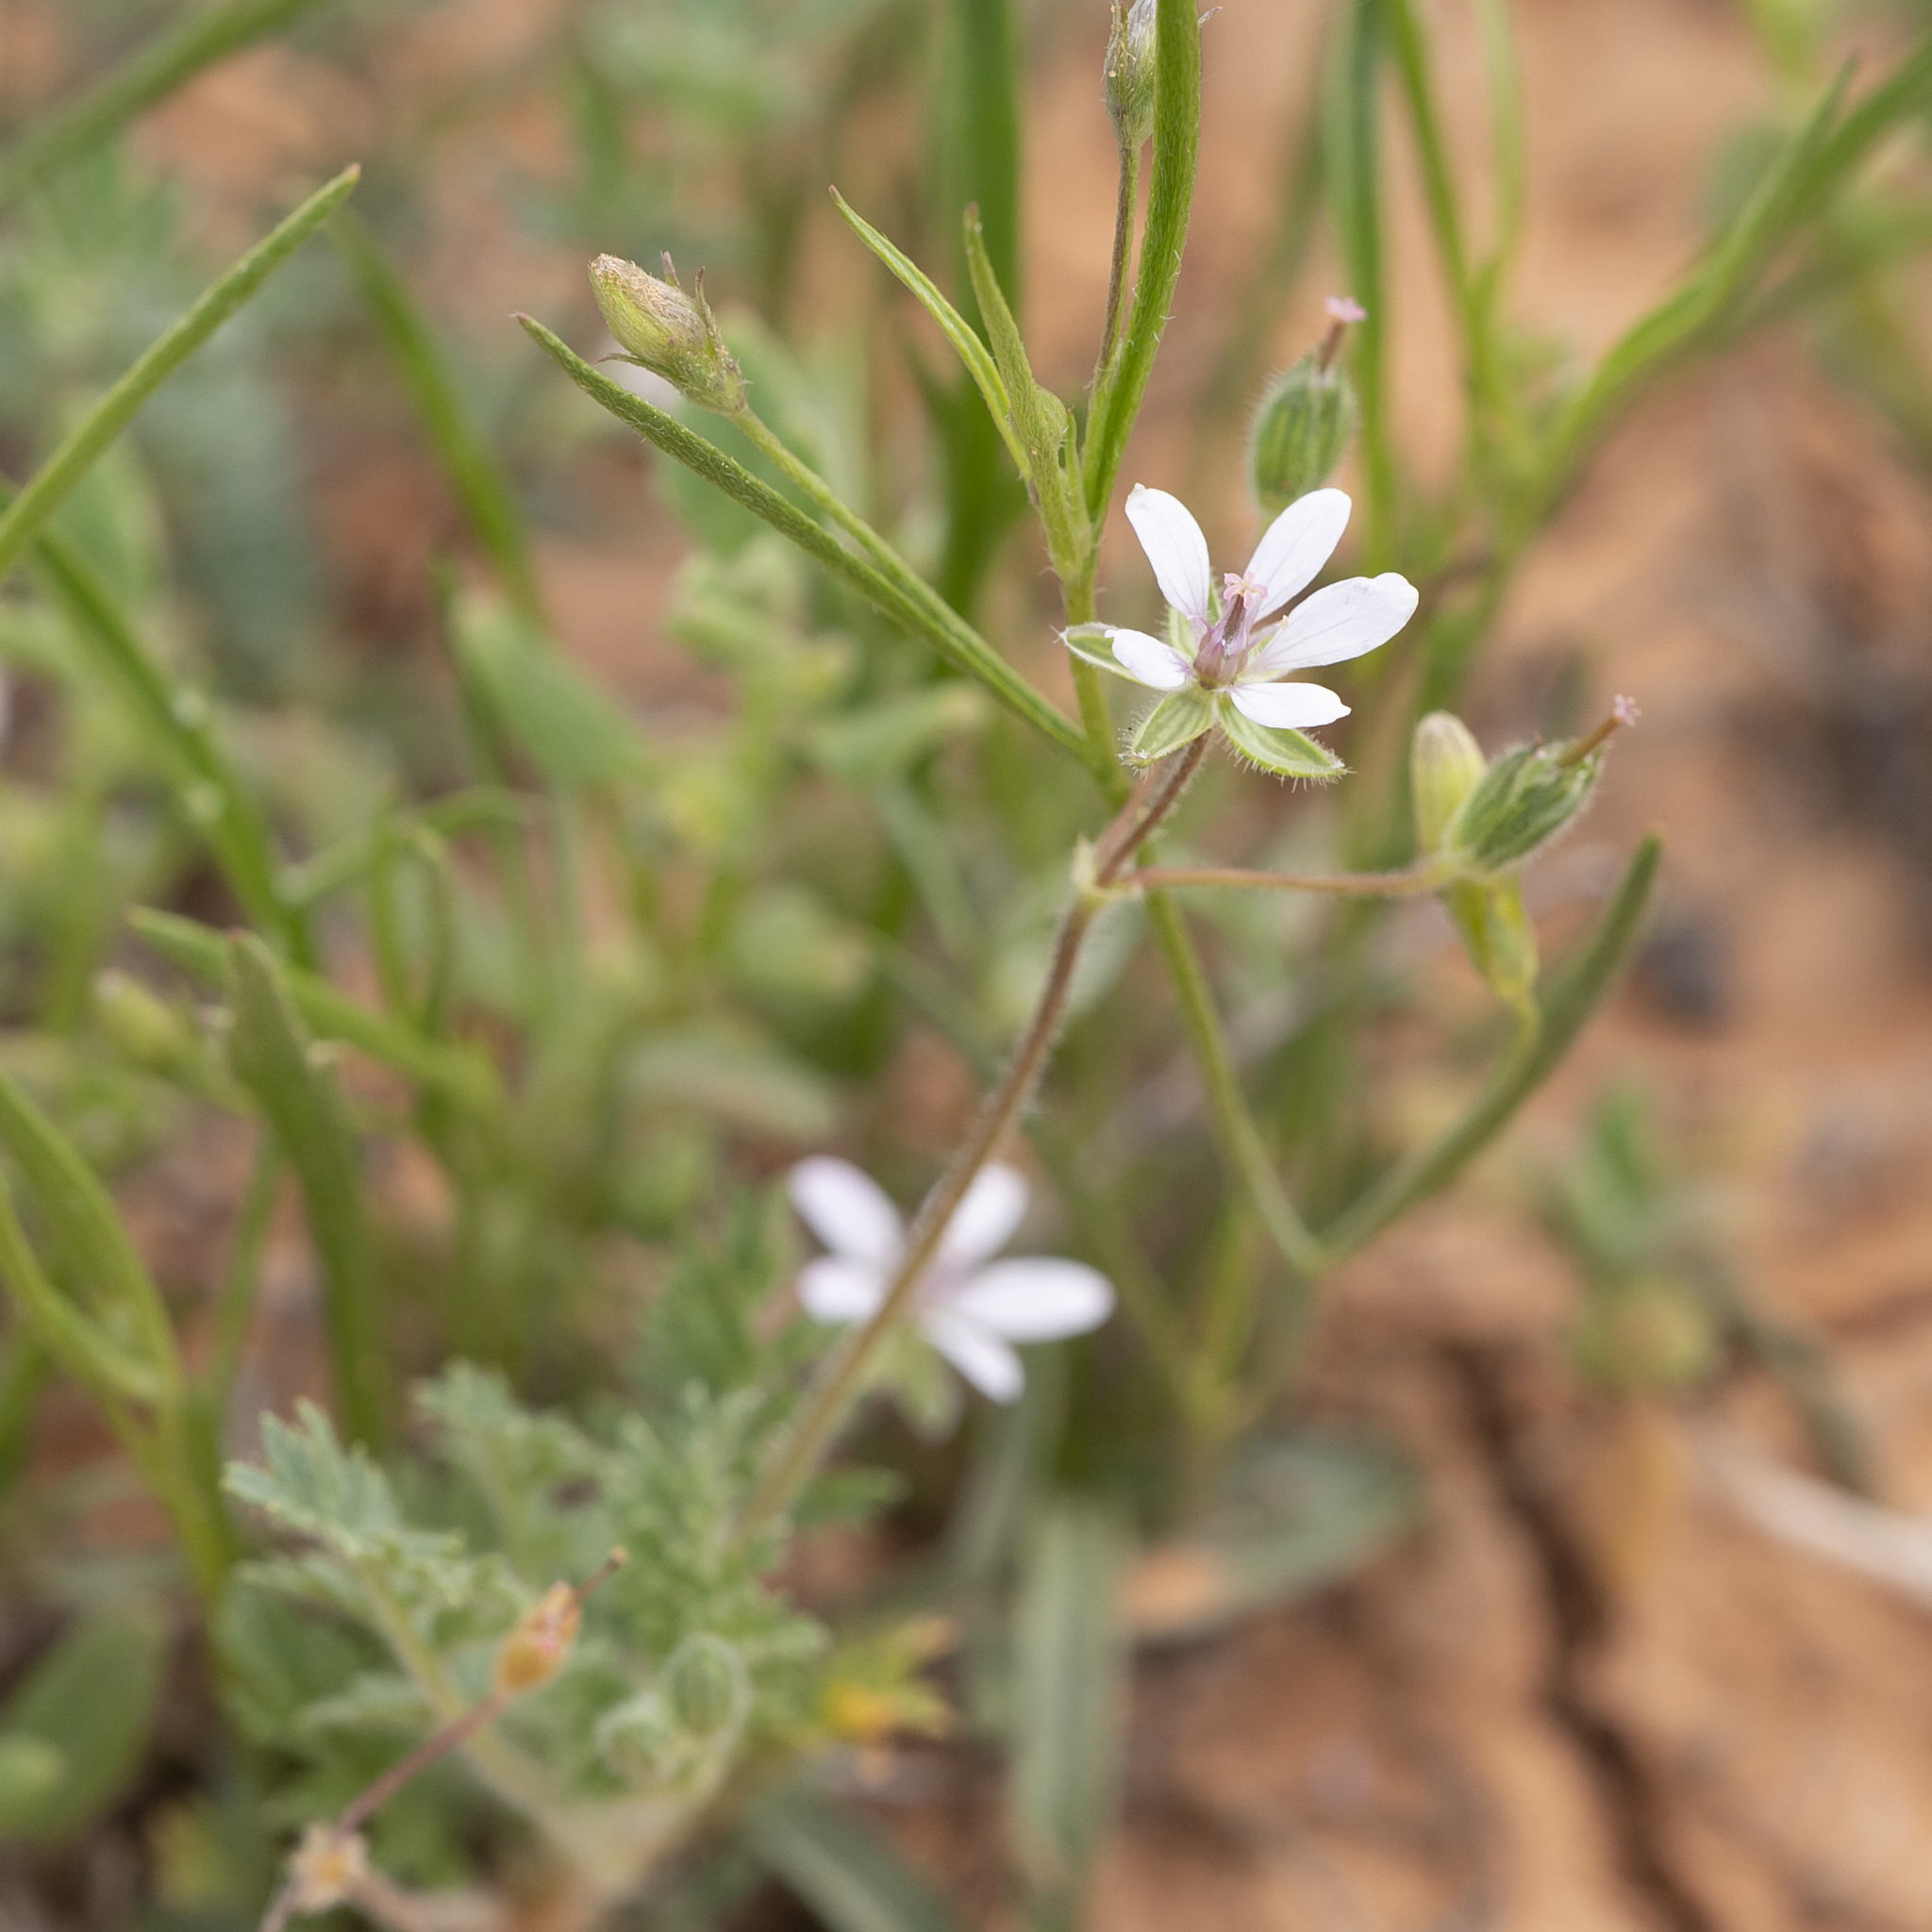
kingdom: Plantae
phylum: Tracheophyta
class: Magnoliopsida
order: Geraniales
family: Geraniaceae
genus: Erodium
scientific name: Erodium cicutarium
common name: Common stork's-bill
